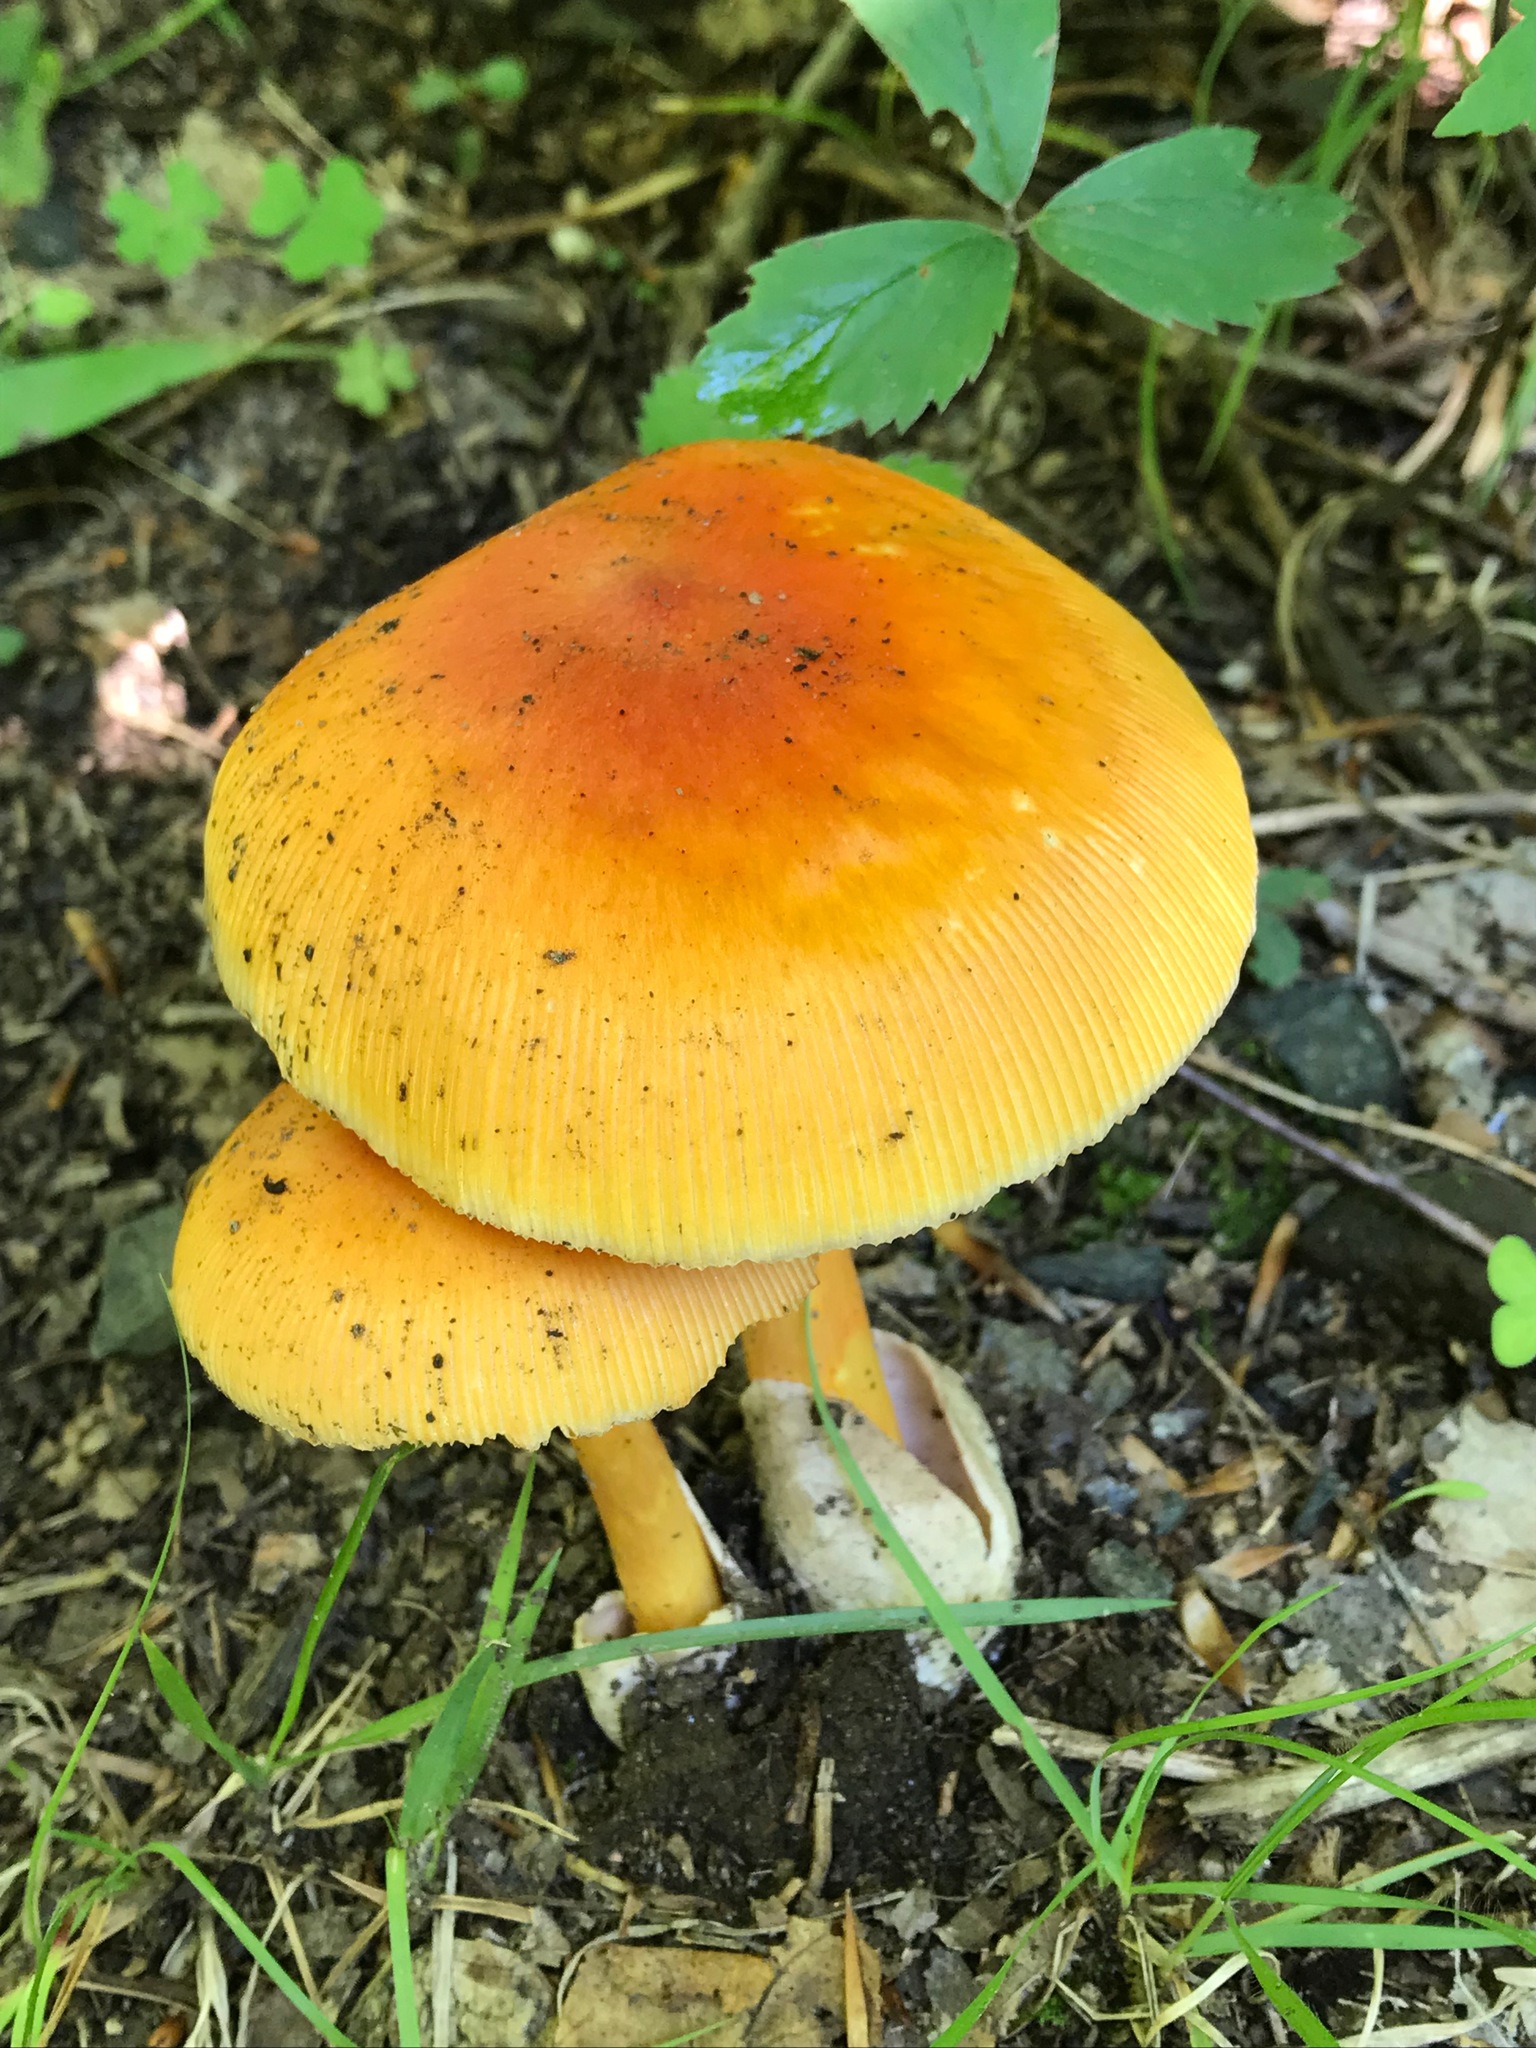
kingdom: Fungi
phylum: Basidiomycota
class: Agaricomycetes
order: Agaricales
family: Amanitaceae
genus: Amanita
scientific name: Amanita jacksonii
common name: Jackson's slender caesar
